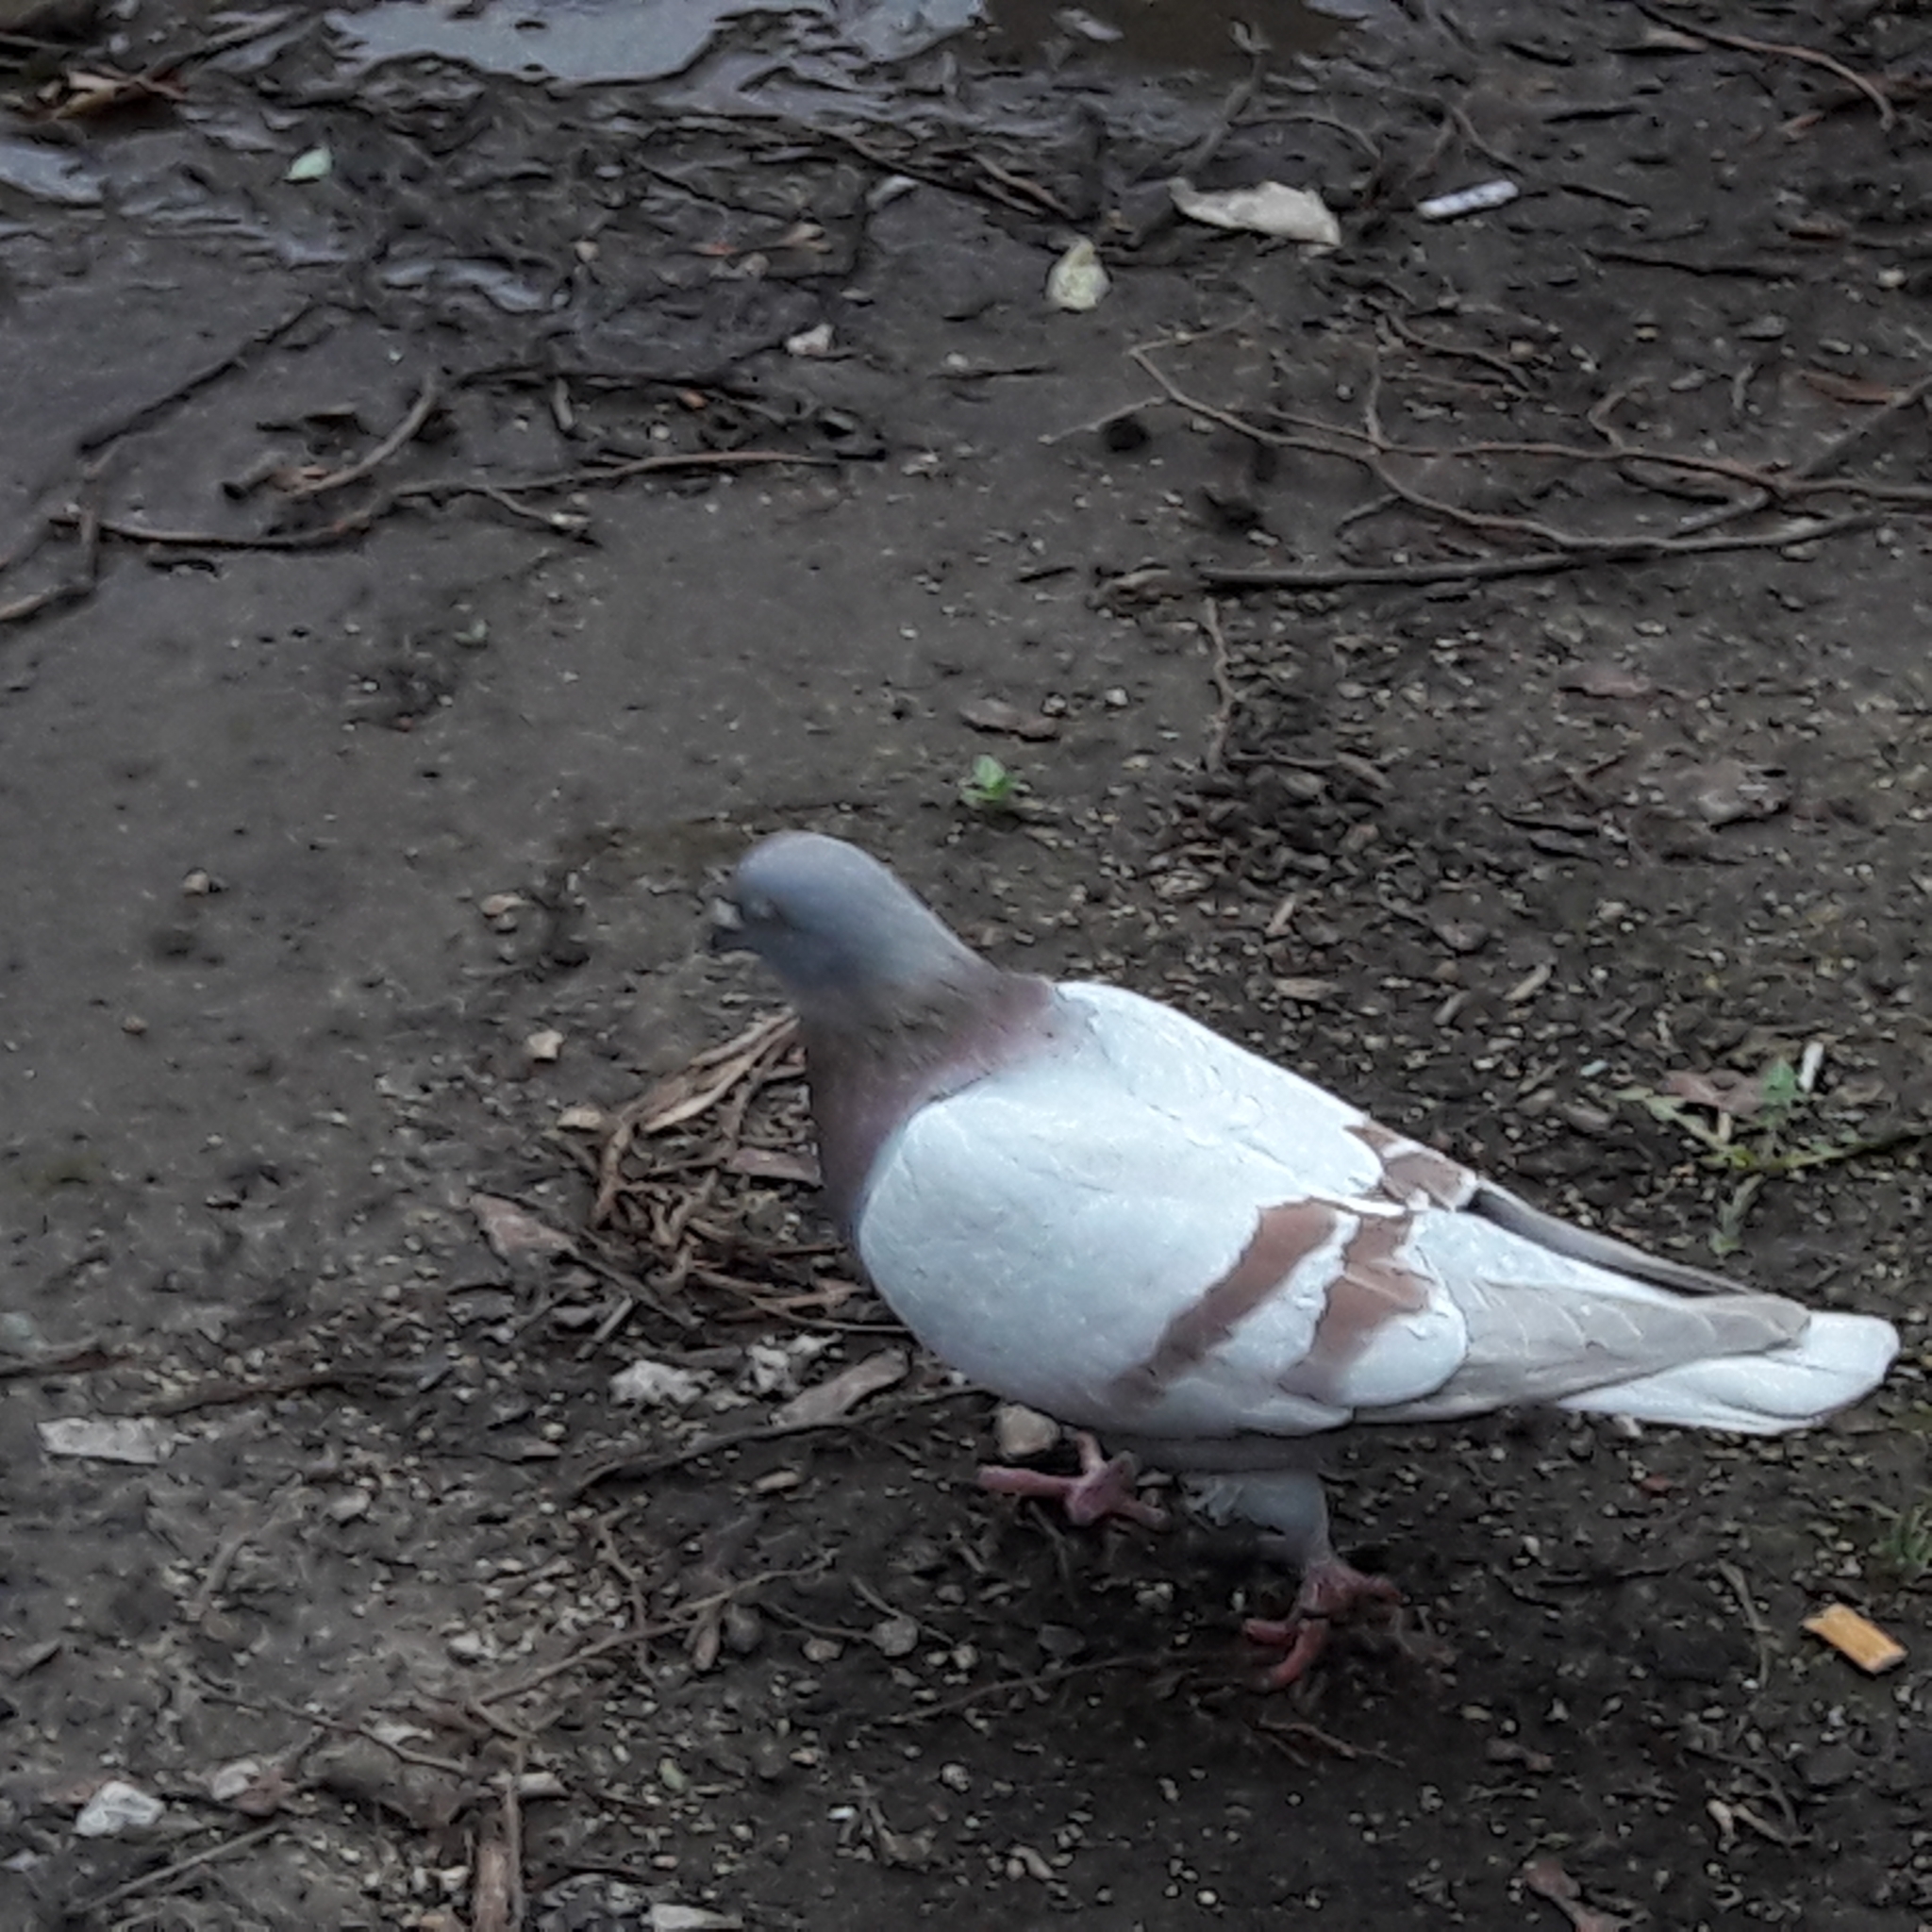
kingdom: Animalia
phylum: Chordata
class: Aves
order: Columbiformes
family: Columbidae
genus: Columba
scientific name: Columba livia
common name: Rock pigeon
